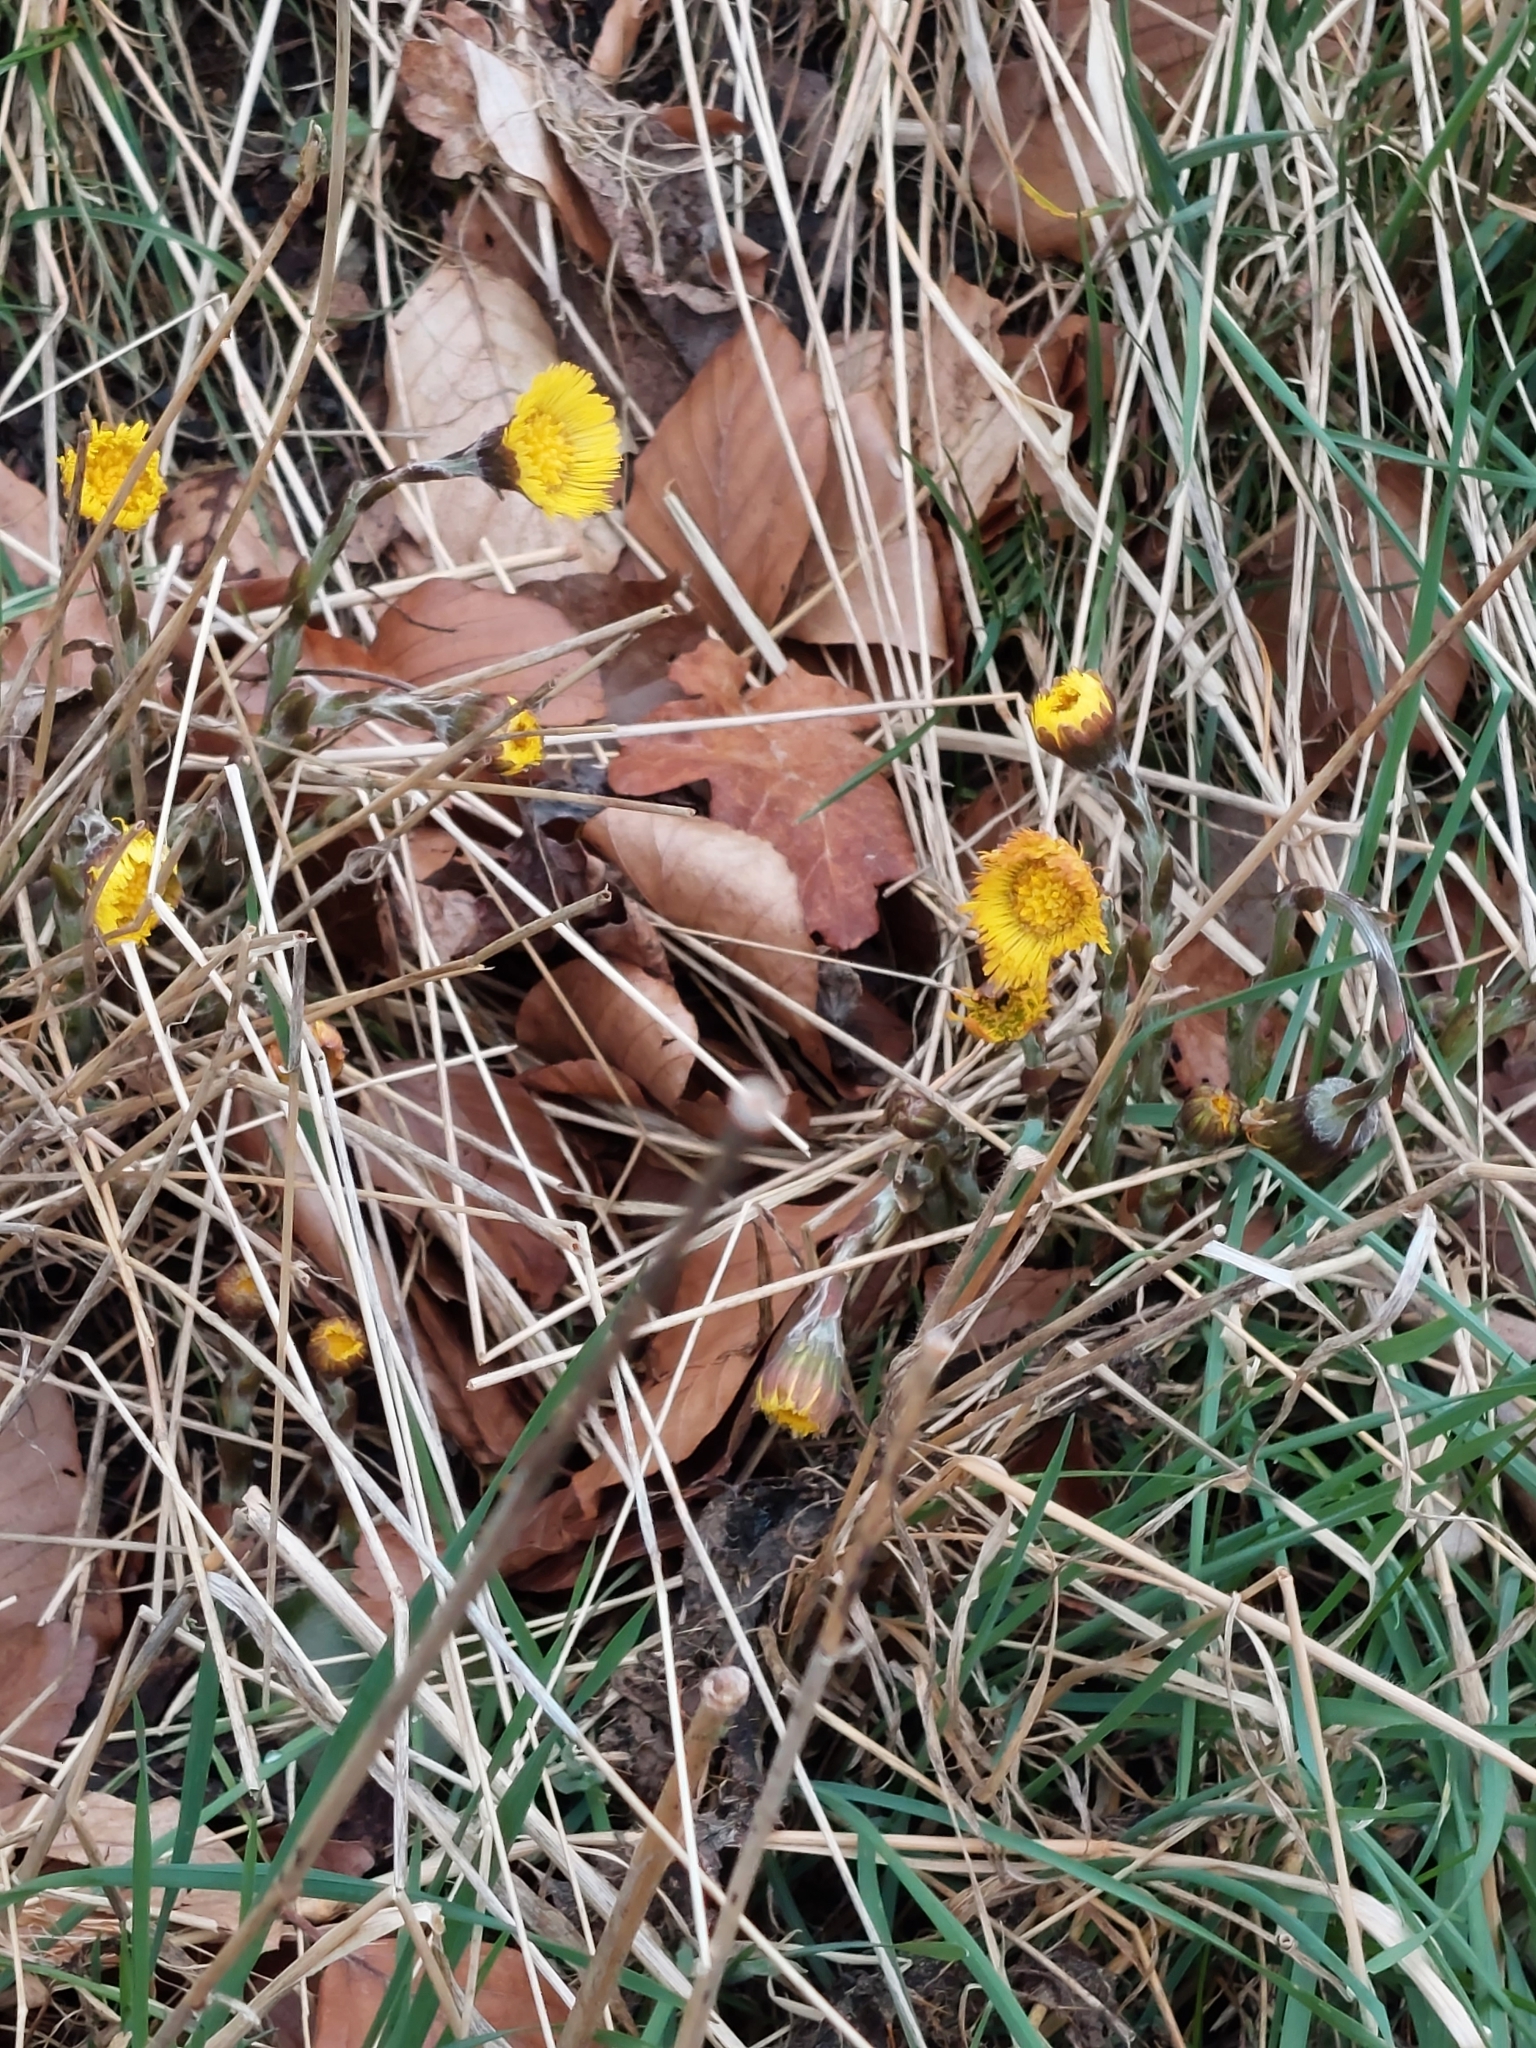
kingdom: Plantae
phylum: Tracheophyta
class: Magnoliopsida
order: Asterales
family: Asteraceae
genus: Tussilago
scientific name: Tussilago farfara
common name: Coltsfoot
